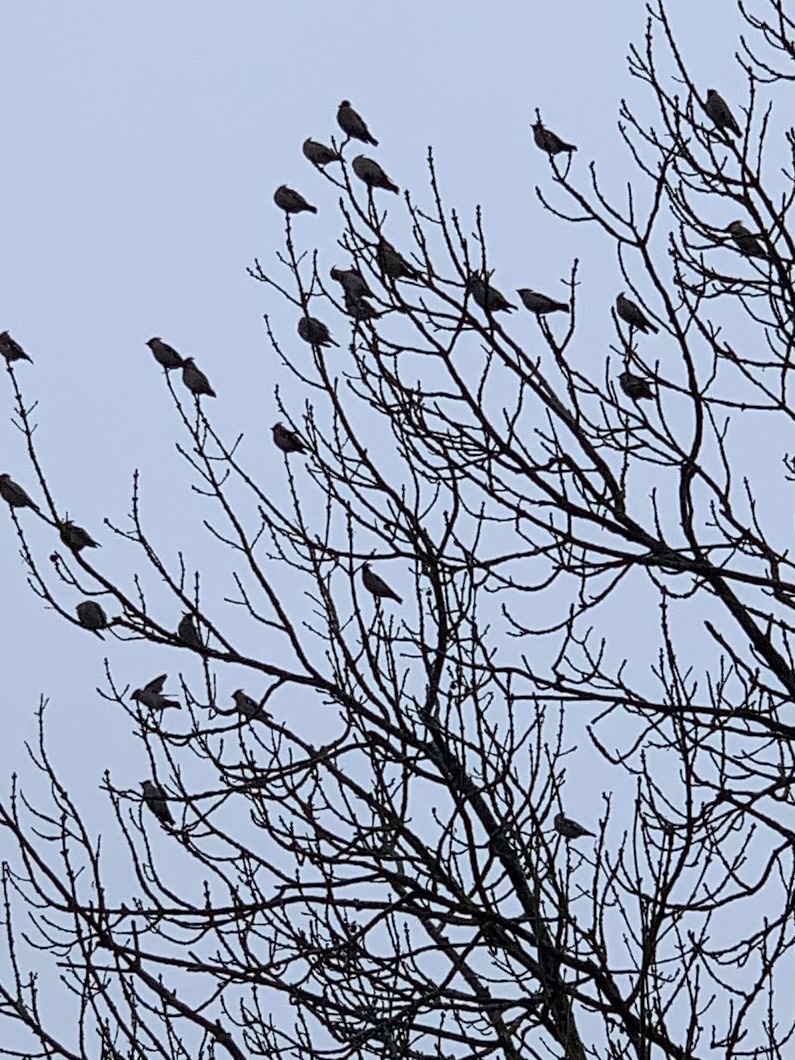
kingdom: Animalia
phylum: Chordata
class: Aves
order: Passeriformes
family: Bombycillidae
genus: Bombycilla
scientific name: Bombycilla garrulus
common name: Bohemian waxwing
